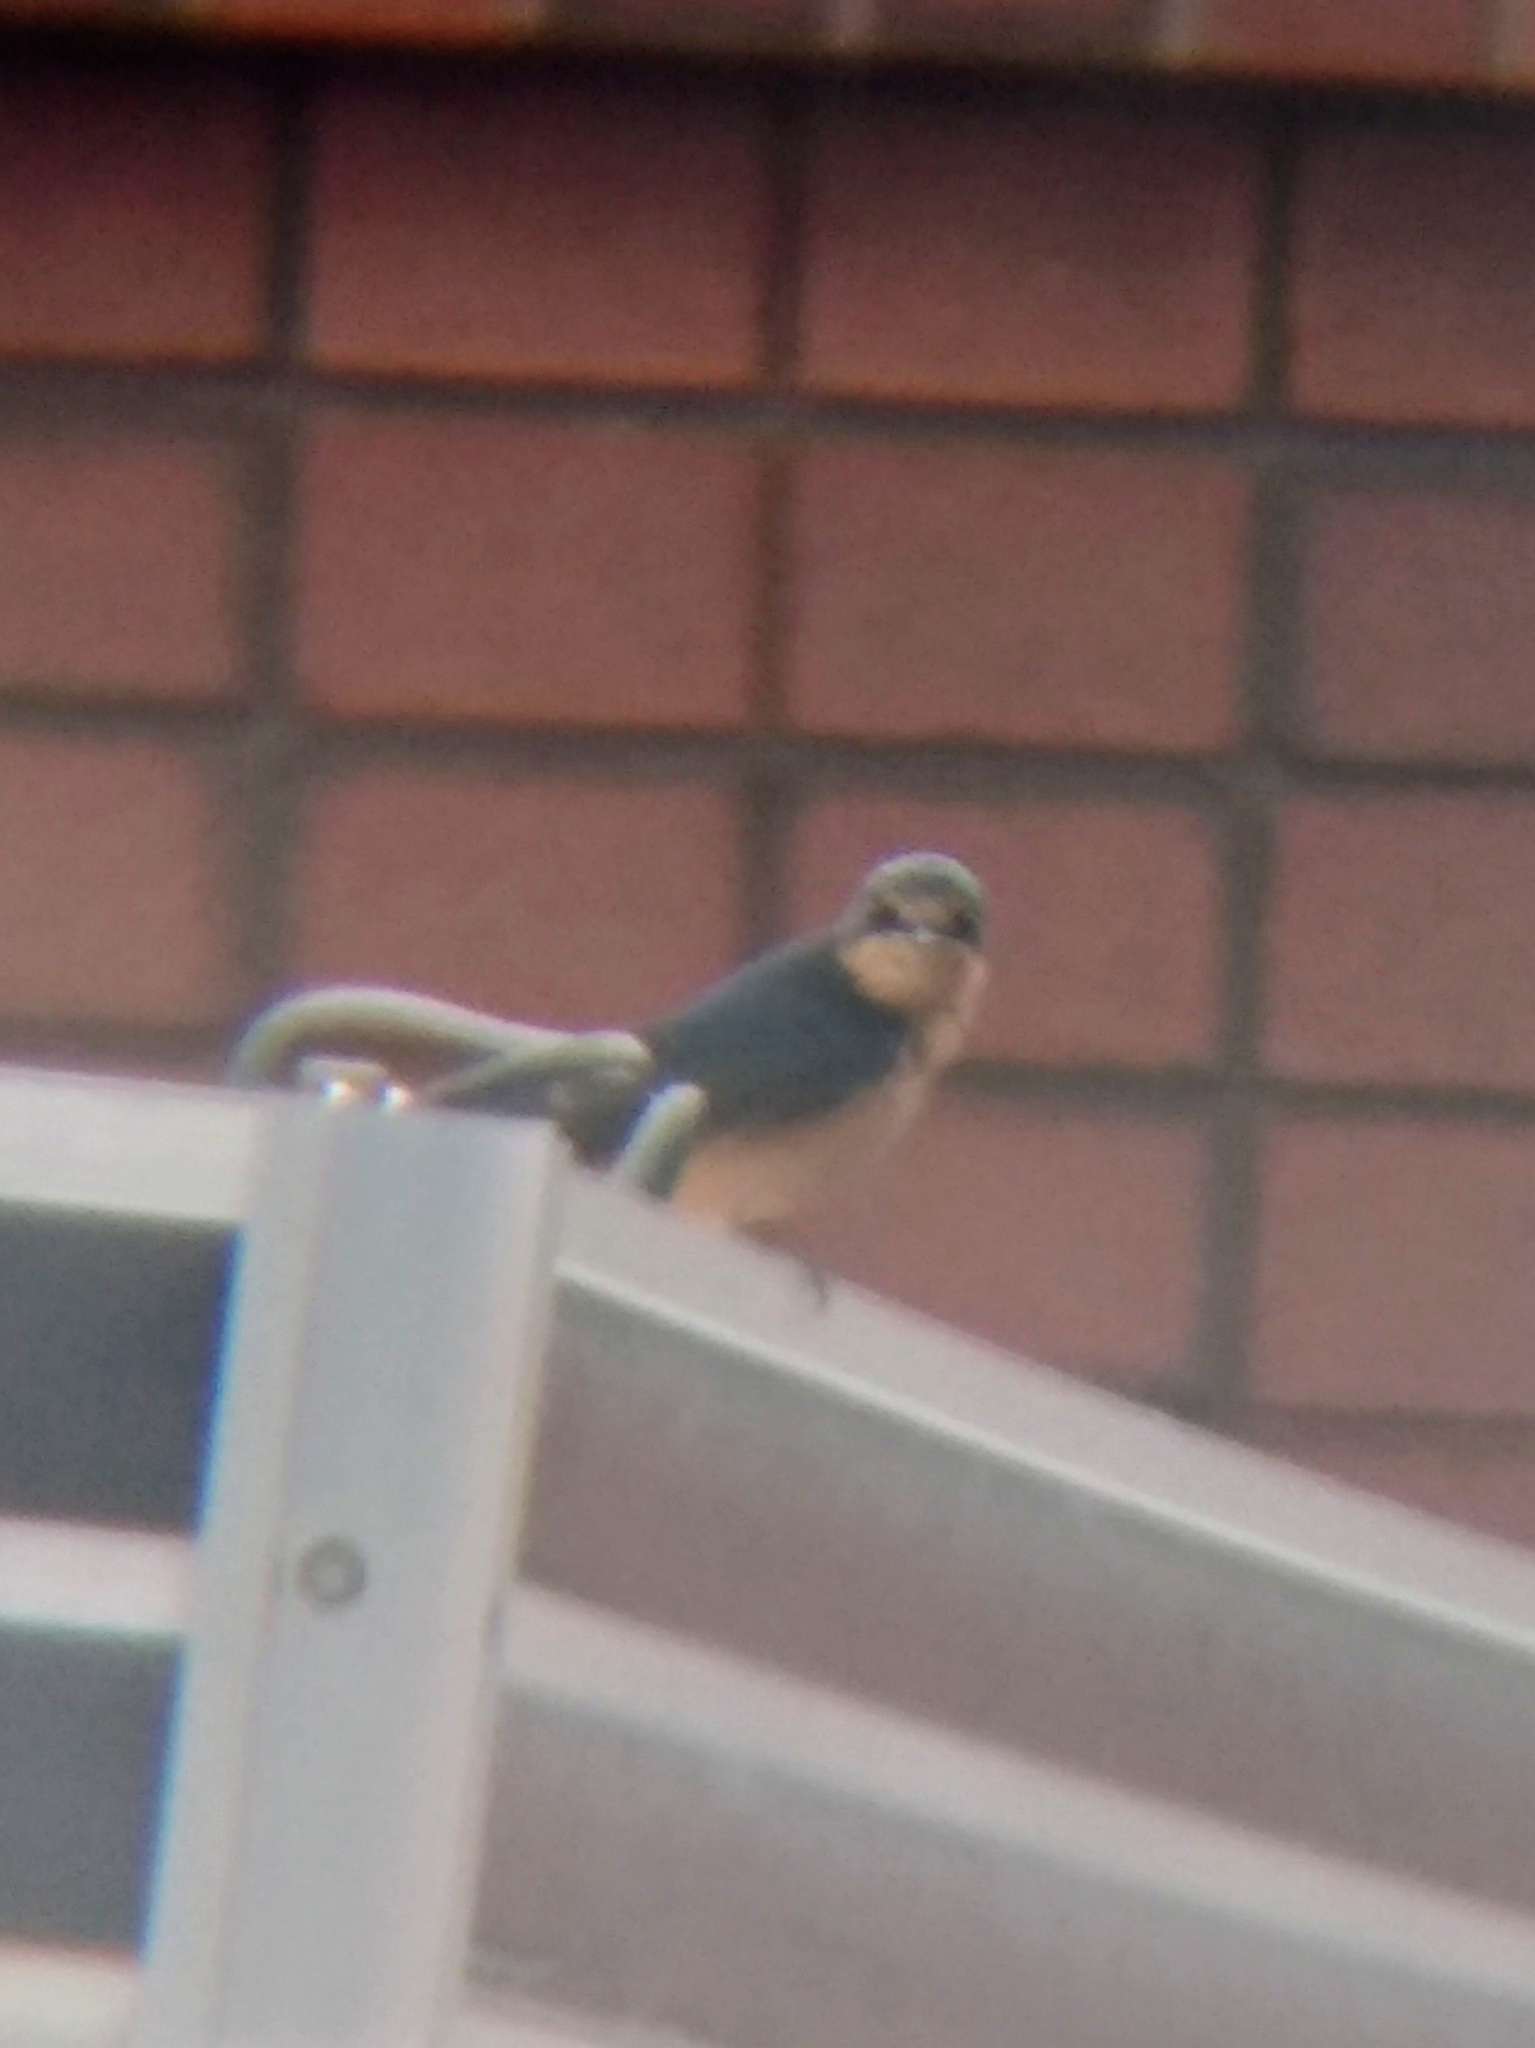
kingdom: Animalia
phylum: Chordata
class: Aves
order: Passeriformes
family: Hirundinidae
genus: Hirundo
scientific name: Hirundo rustica
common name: Barn swallow
